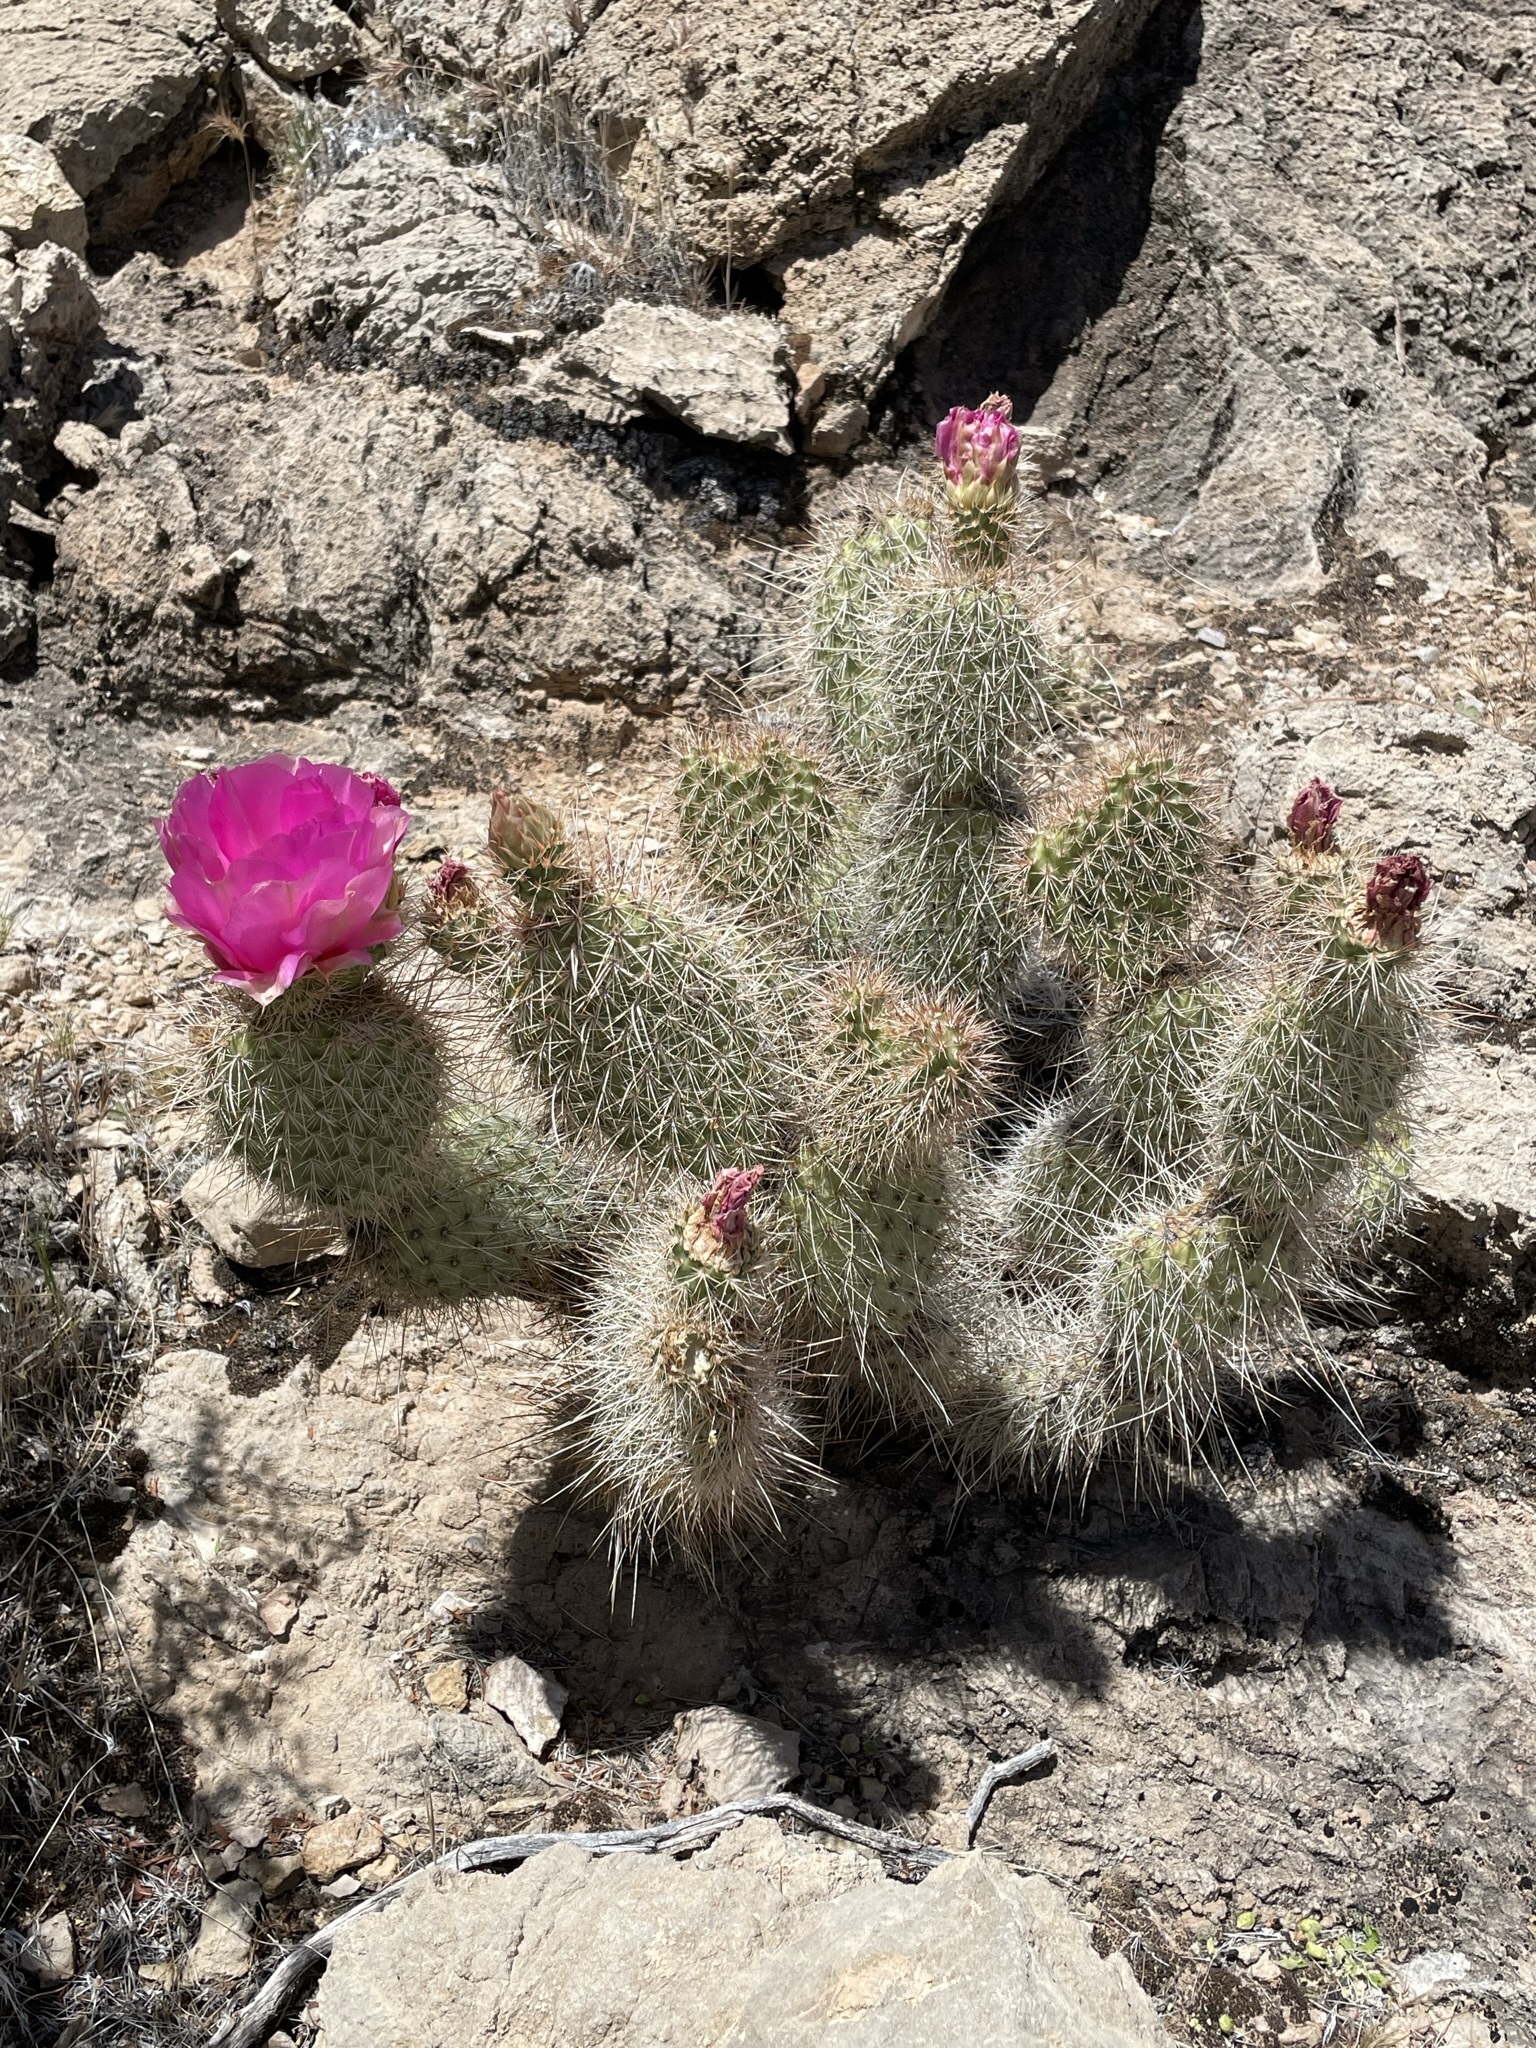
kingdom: Plantae
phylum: Tracheophyta
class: Magnoliopsida
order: Caryophyllales
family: Cactaceae
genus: Opuntia
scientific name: Opuntia polyacantha
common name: Plains prickly-pear
